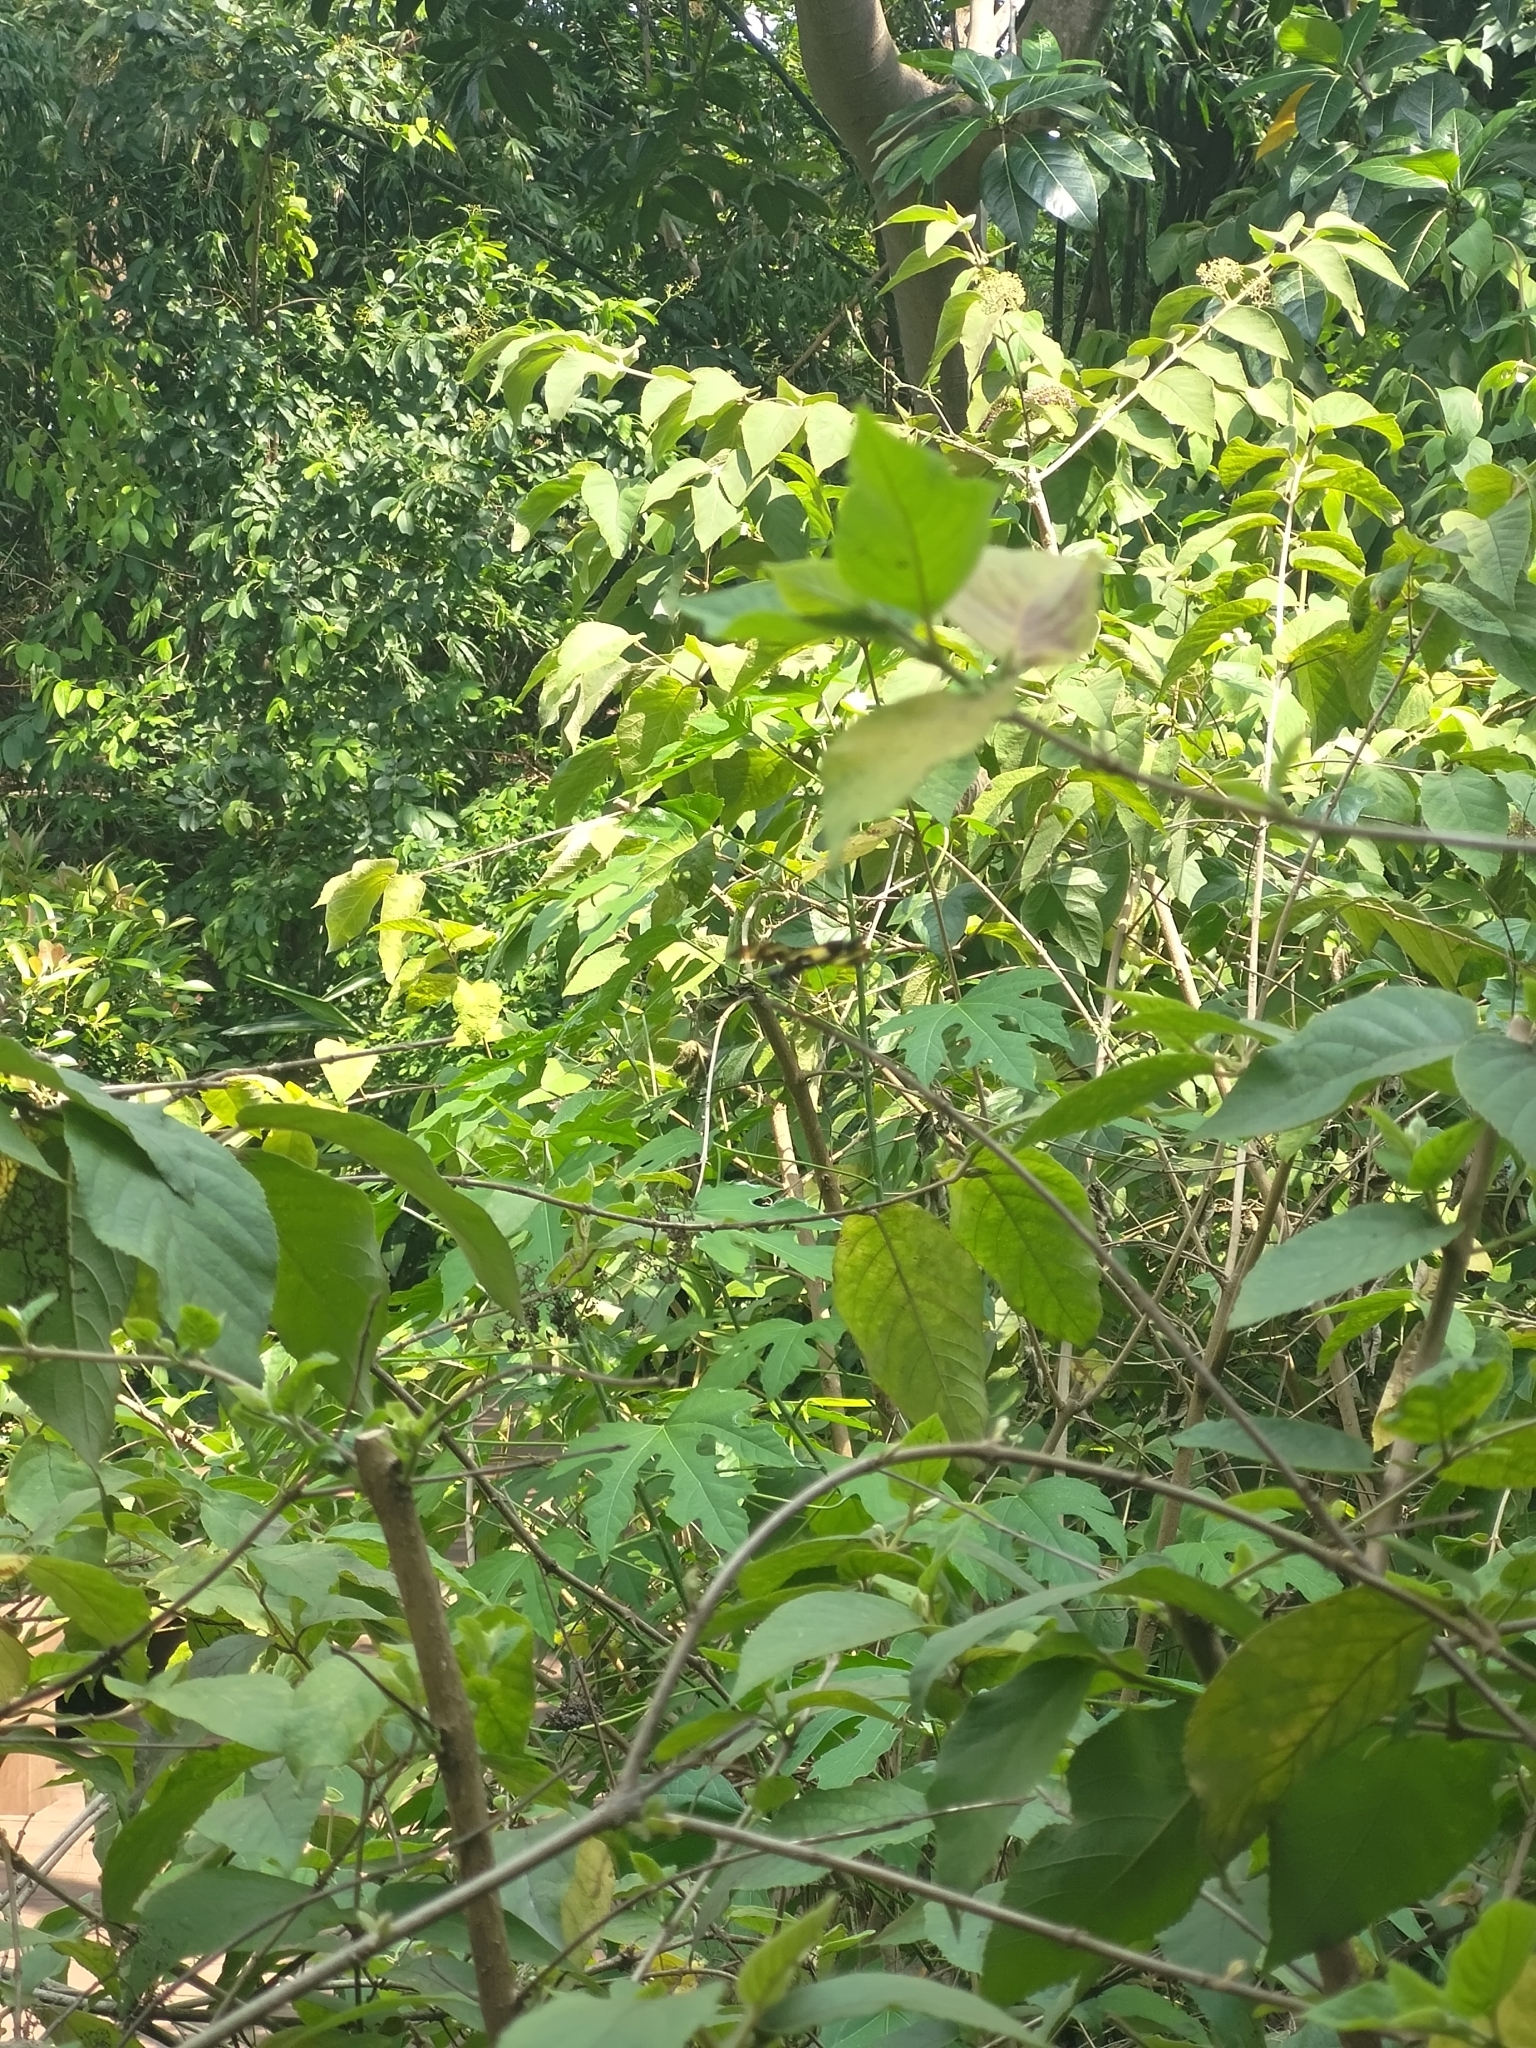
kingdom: Animalia
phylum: Arthropoda
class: Insecta
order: Odonata
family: Libellulidae
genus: Rhyothemis
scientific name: Rhyothemis variegata
